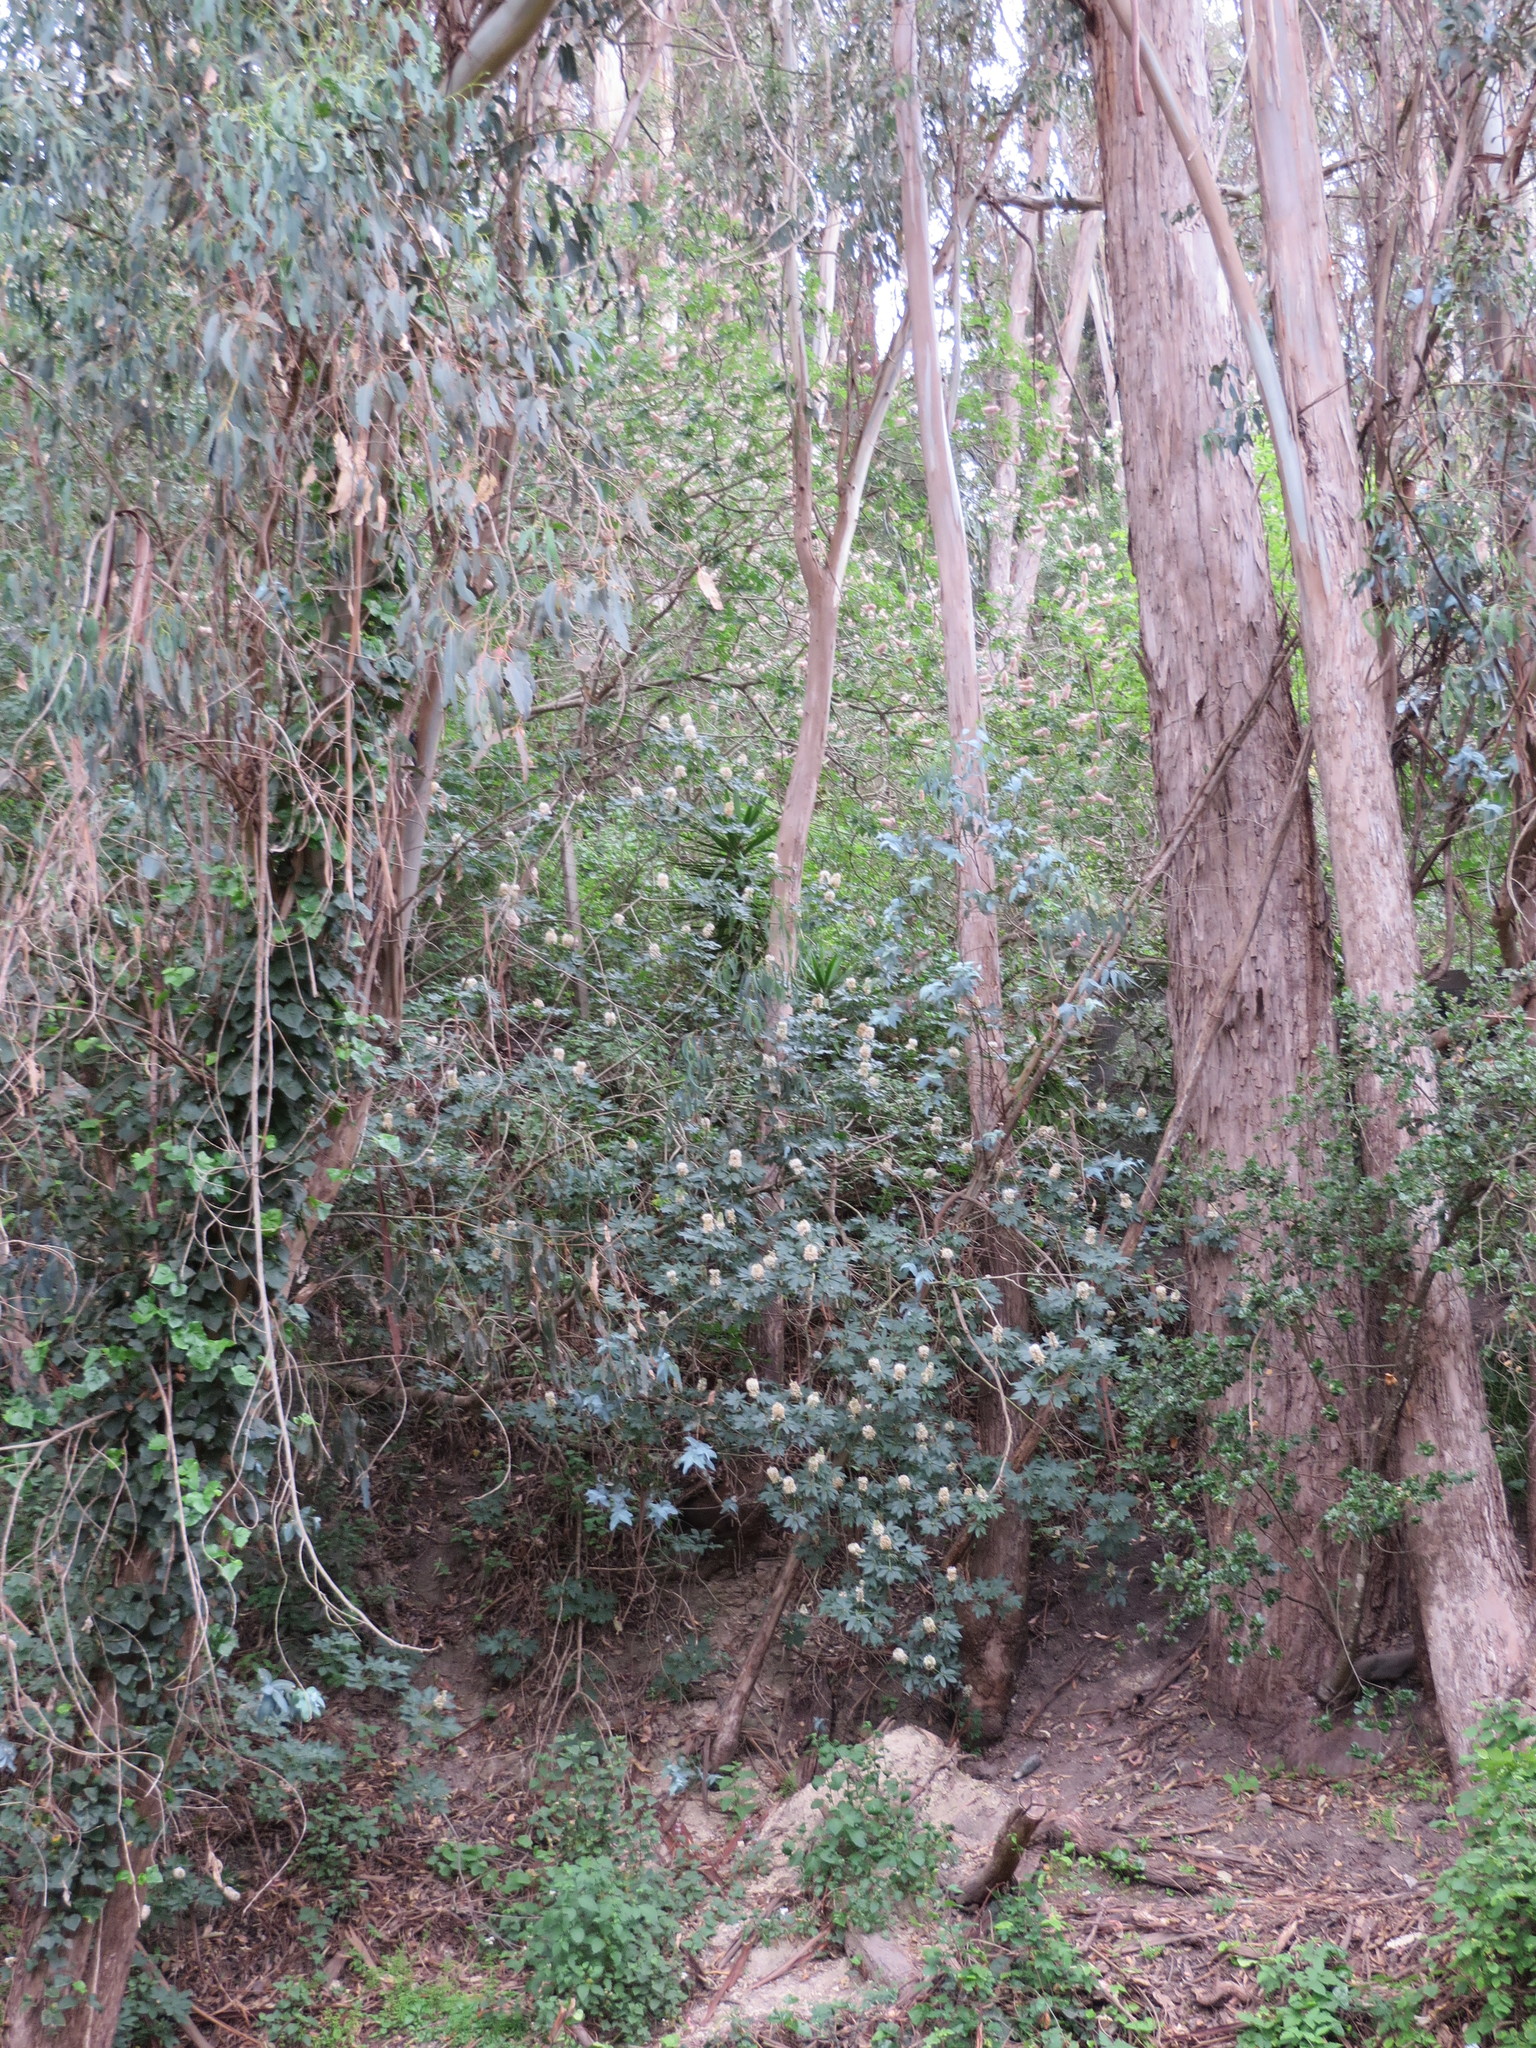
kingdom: Plantae
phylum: Tracheophyta
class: Magnoliopsida
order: Sapindales
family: Sapindaceae
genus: Aesculus
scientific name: Aesculus californica
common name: California buckeye
